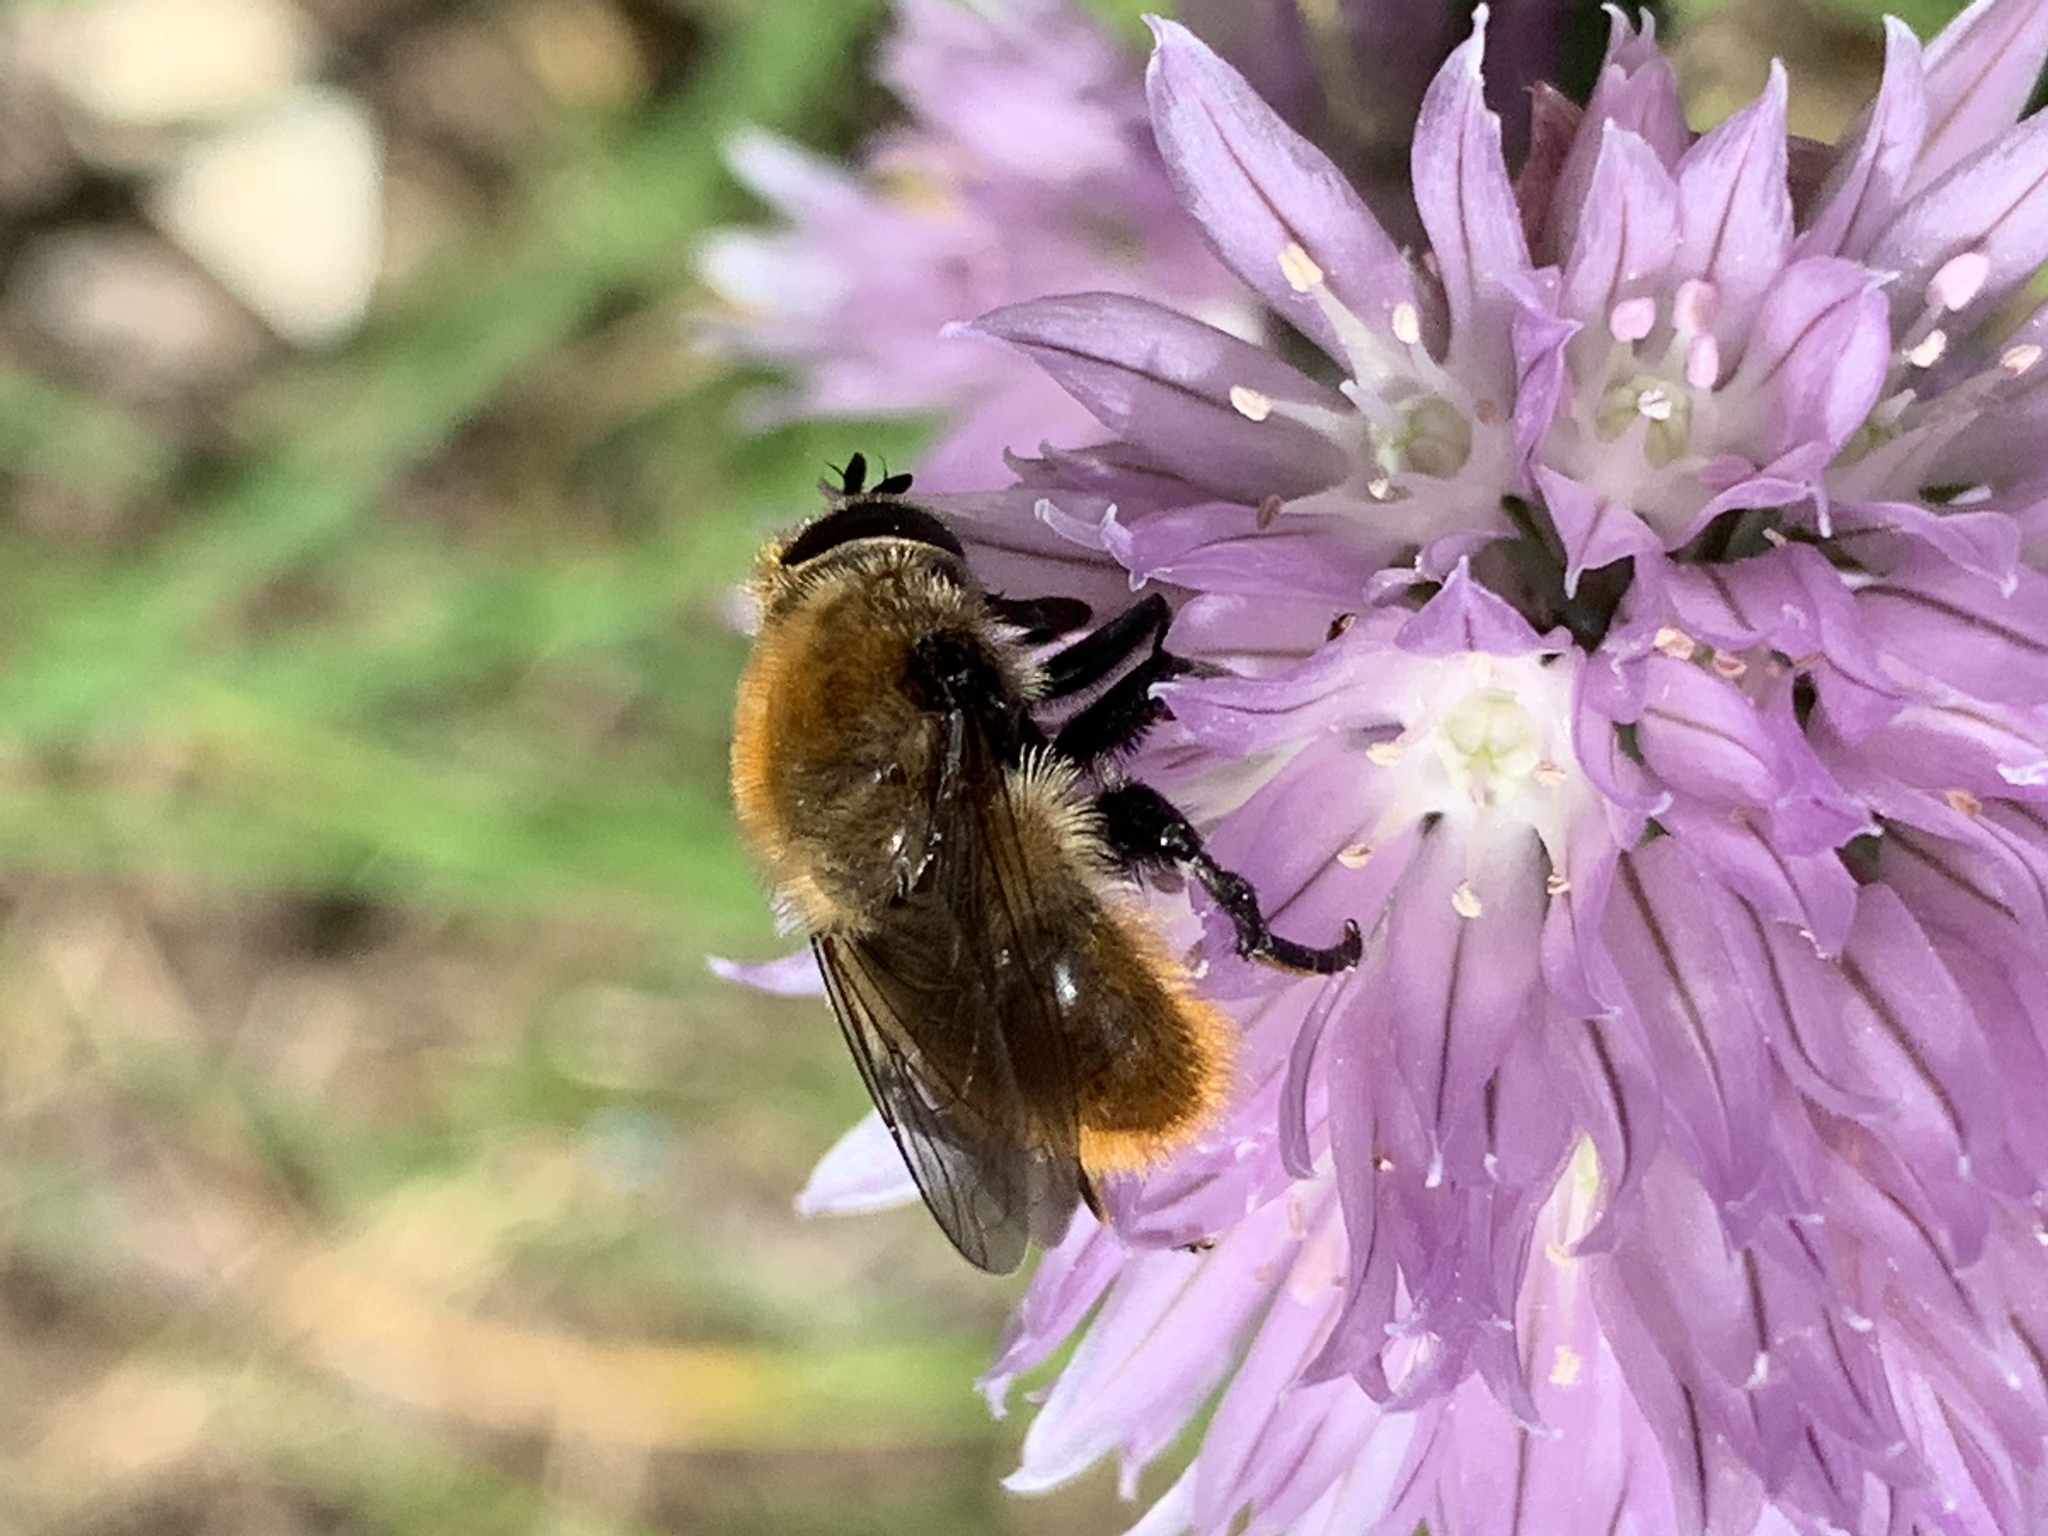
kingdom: Animalia
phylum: Arthropoda
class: Insecta
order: Diptera
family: Syrphidae
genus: Merodon
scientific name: Merodon equestris
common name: Greater bulb-fly
